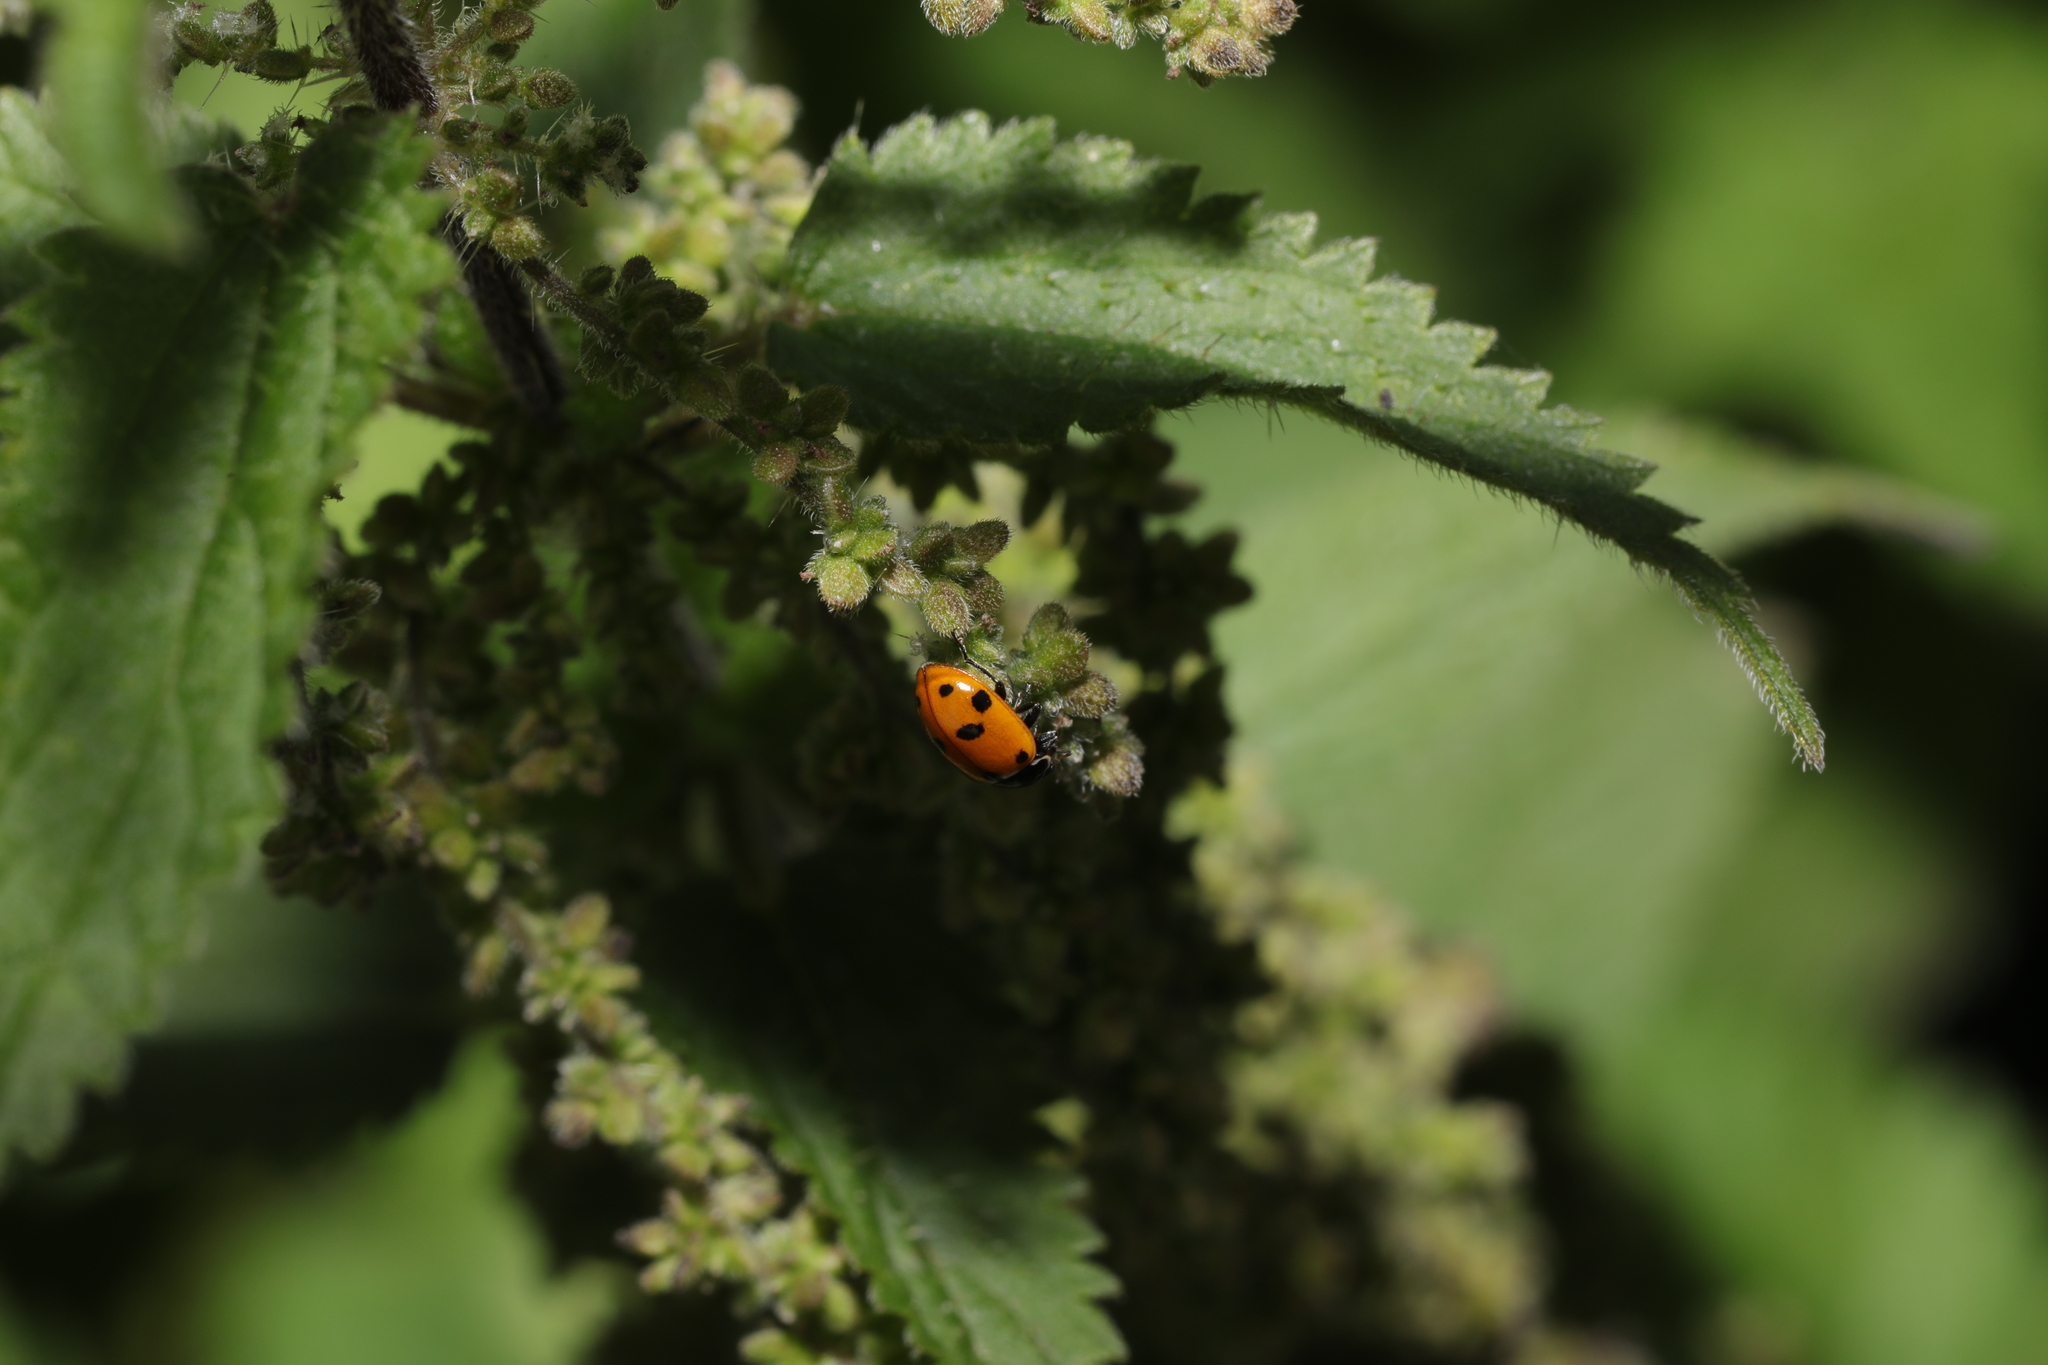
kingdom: Animalia
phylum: Arthropoda
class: Insecta
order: Coleoptera
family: Coccinellidae
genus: Hippodamia
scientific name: Hippodamia variegata
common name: Ladybird beetle
